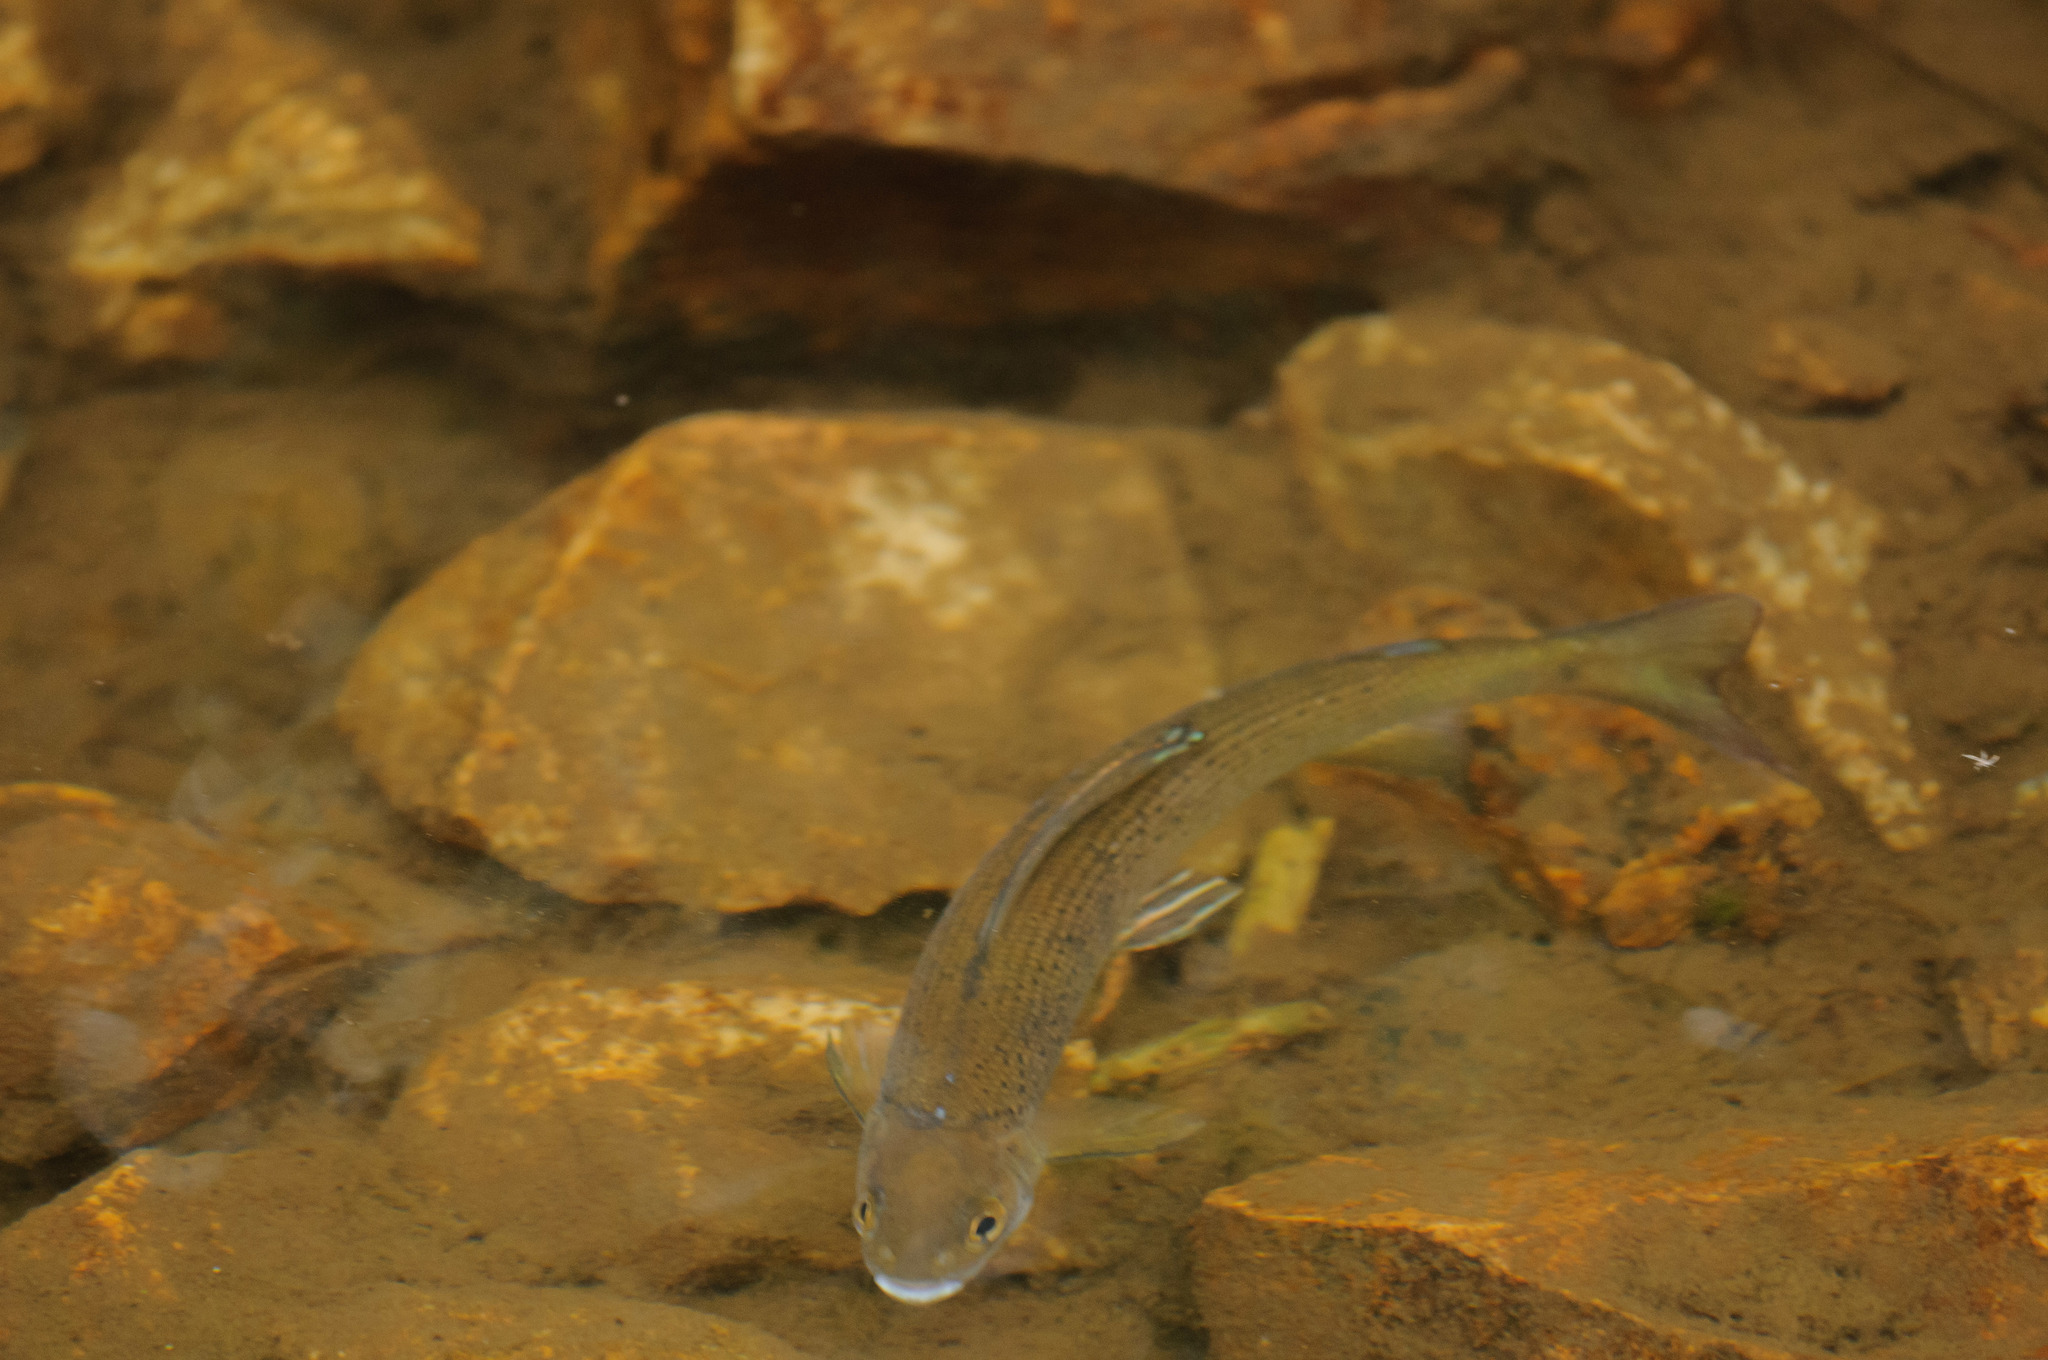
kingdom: Animalia
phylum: Chordata
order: Salmoniformes
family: Salmonidae
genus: Thymallus
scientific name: Thymallus arcticus
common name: Arctic grayling
